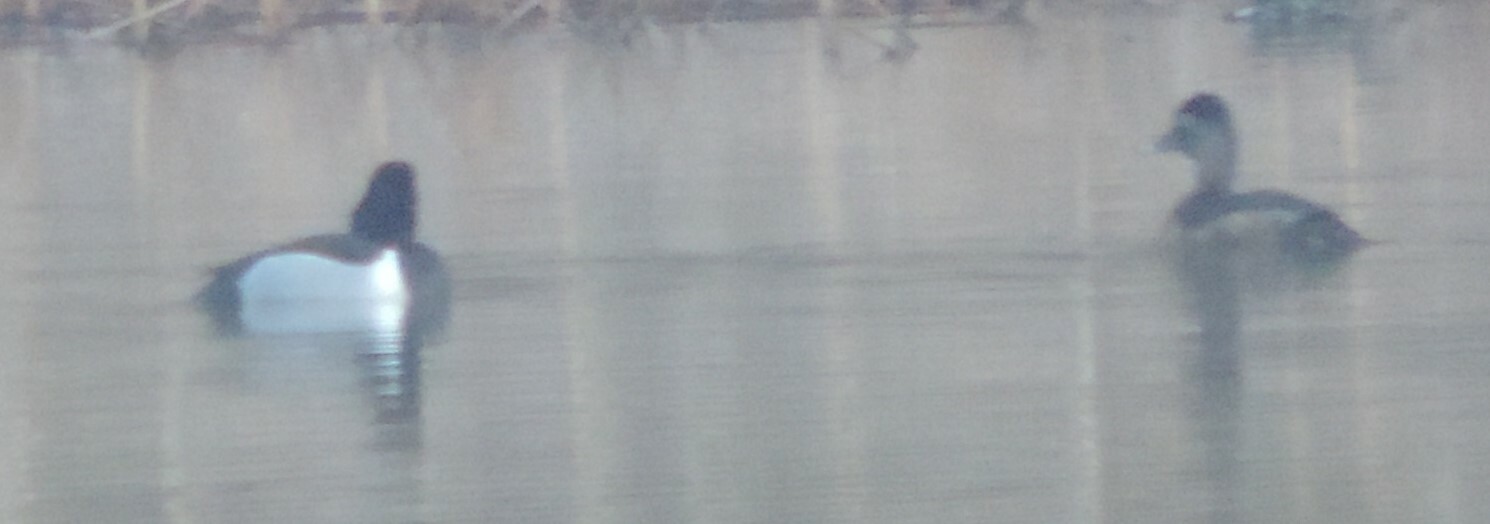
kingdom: Animalia
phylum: Chordata
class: Aves
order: Anseriformes
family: Anatidae
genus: Aythya
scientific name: Aythya collaris
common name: Ring-necked duck
